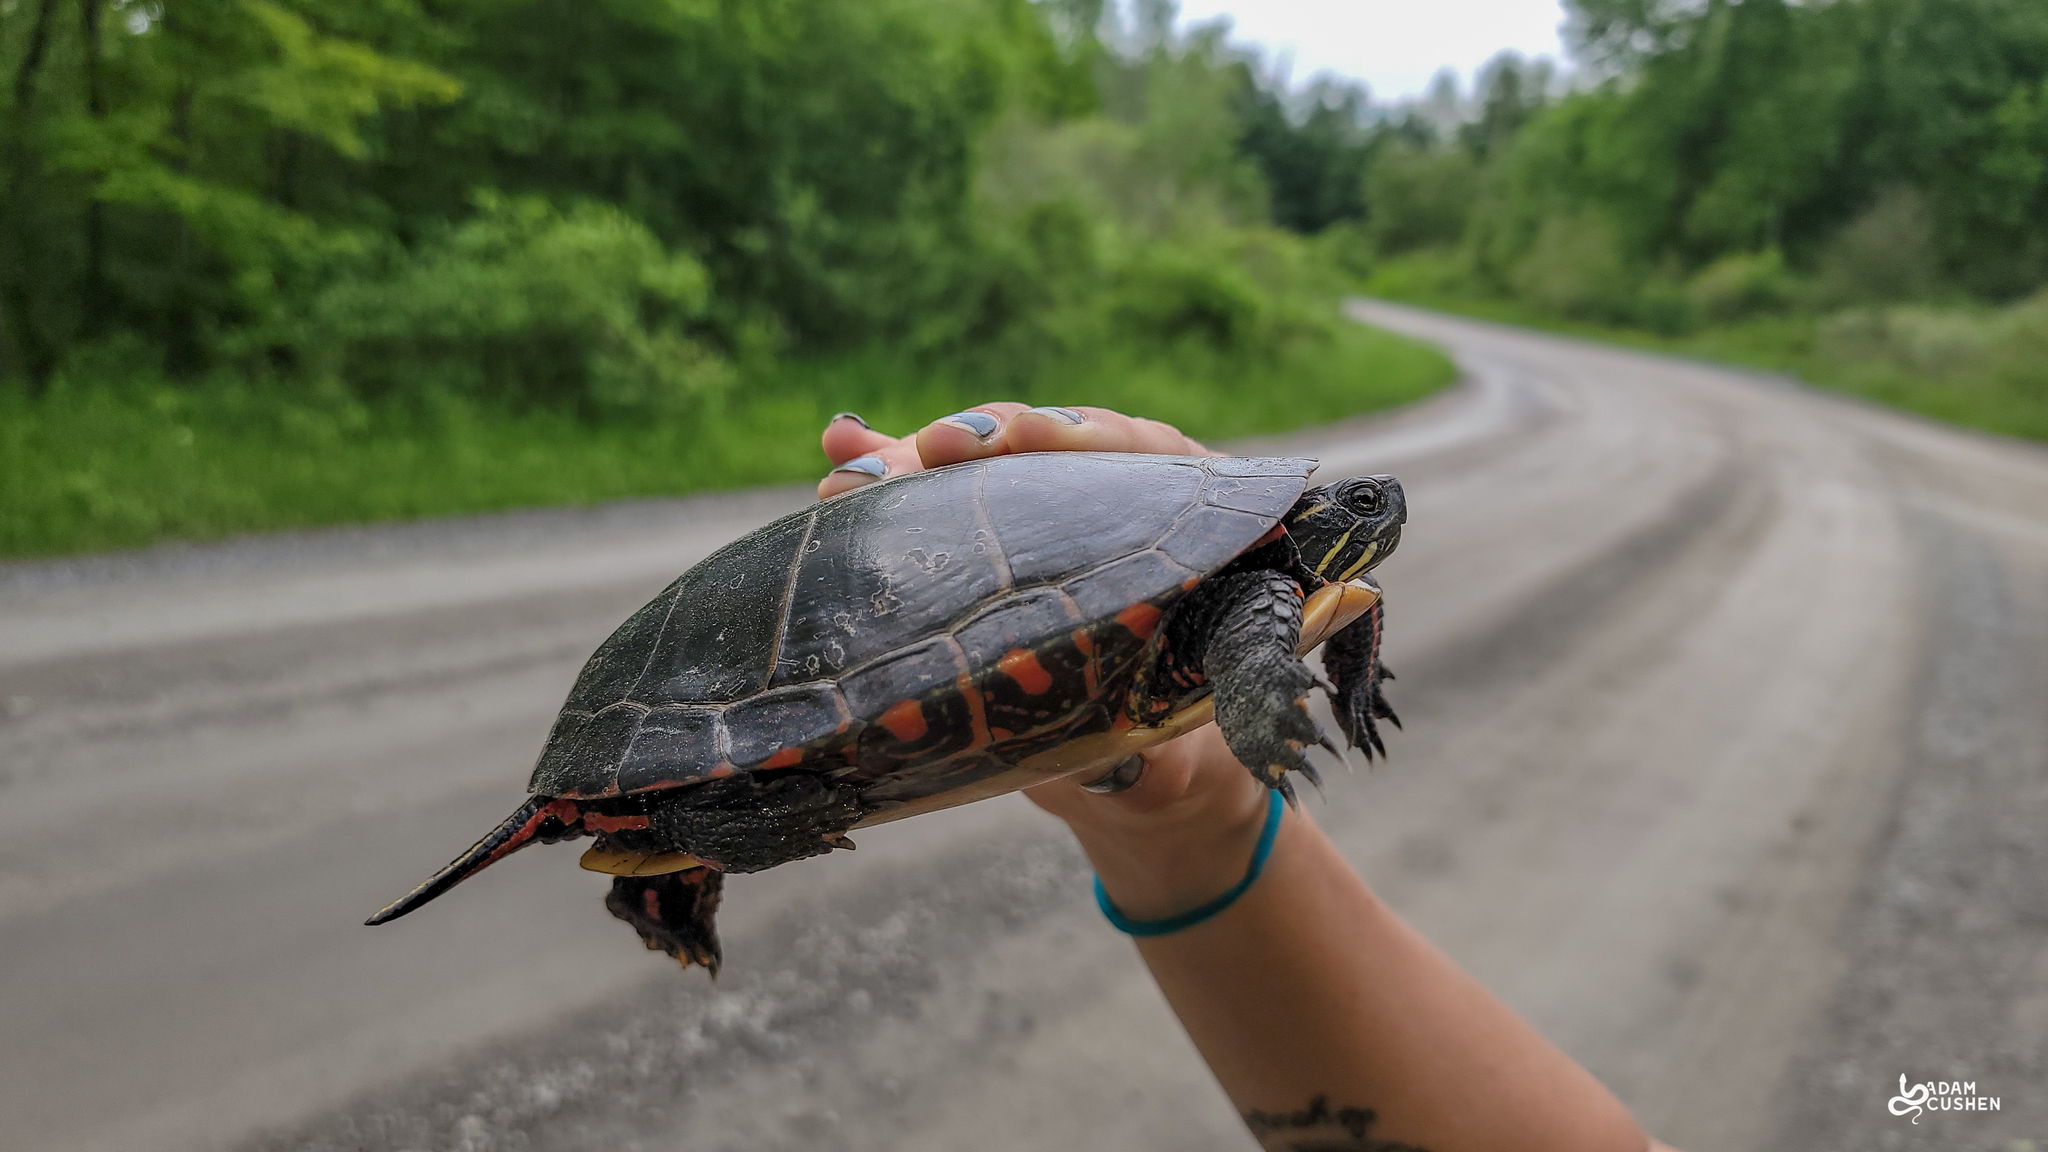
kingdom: Animalia
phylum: Chordata
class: Testudines
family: Emydidae
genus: Chrysemys
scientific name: Chrysemys picta
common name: Painted turtle
